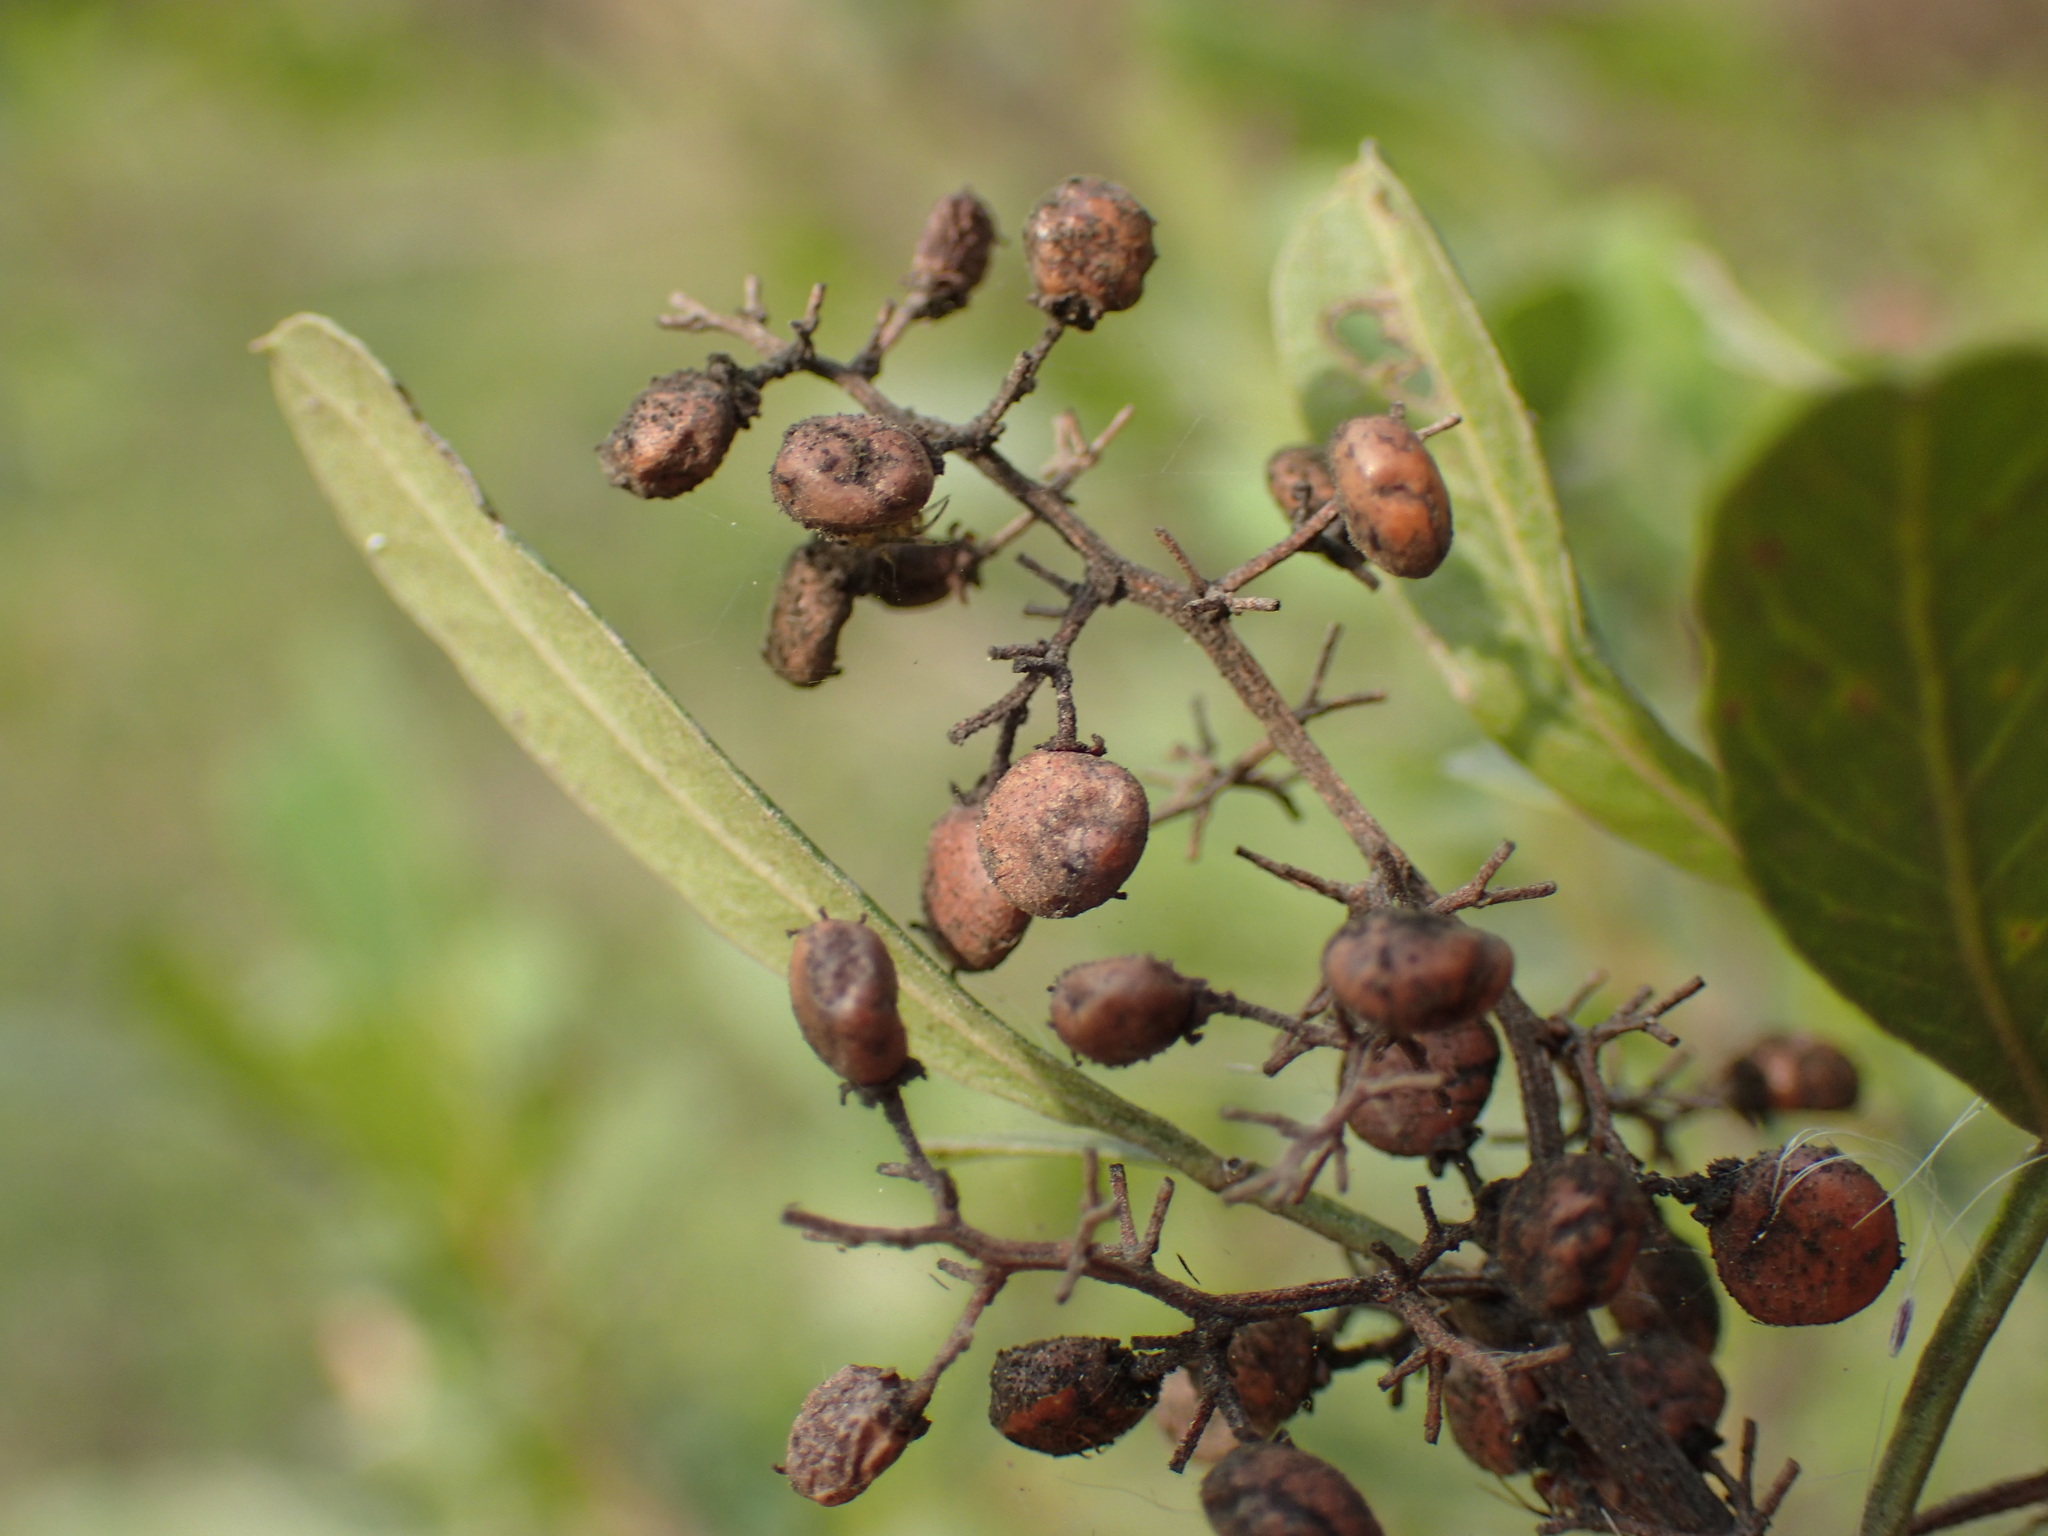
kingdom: Plantae
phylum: Tracheophyta
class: Magnoliopsida
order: Sapindales
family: Anacardiaceae
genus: Searsia
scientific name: Searsia pallens
